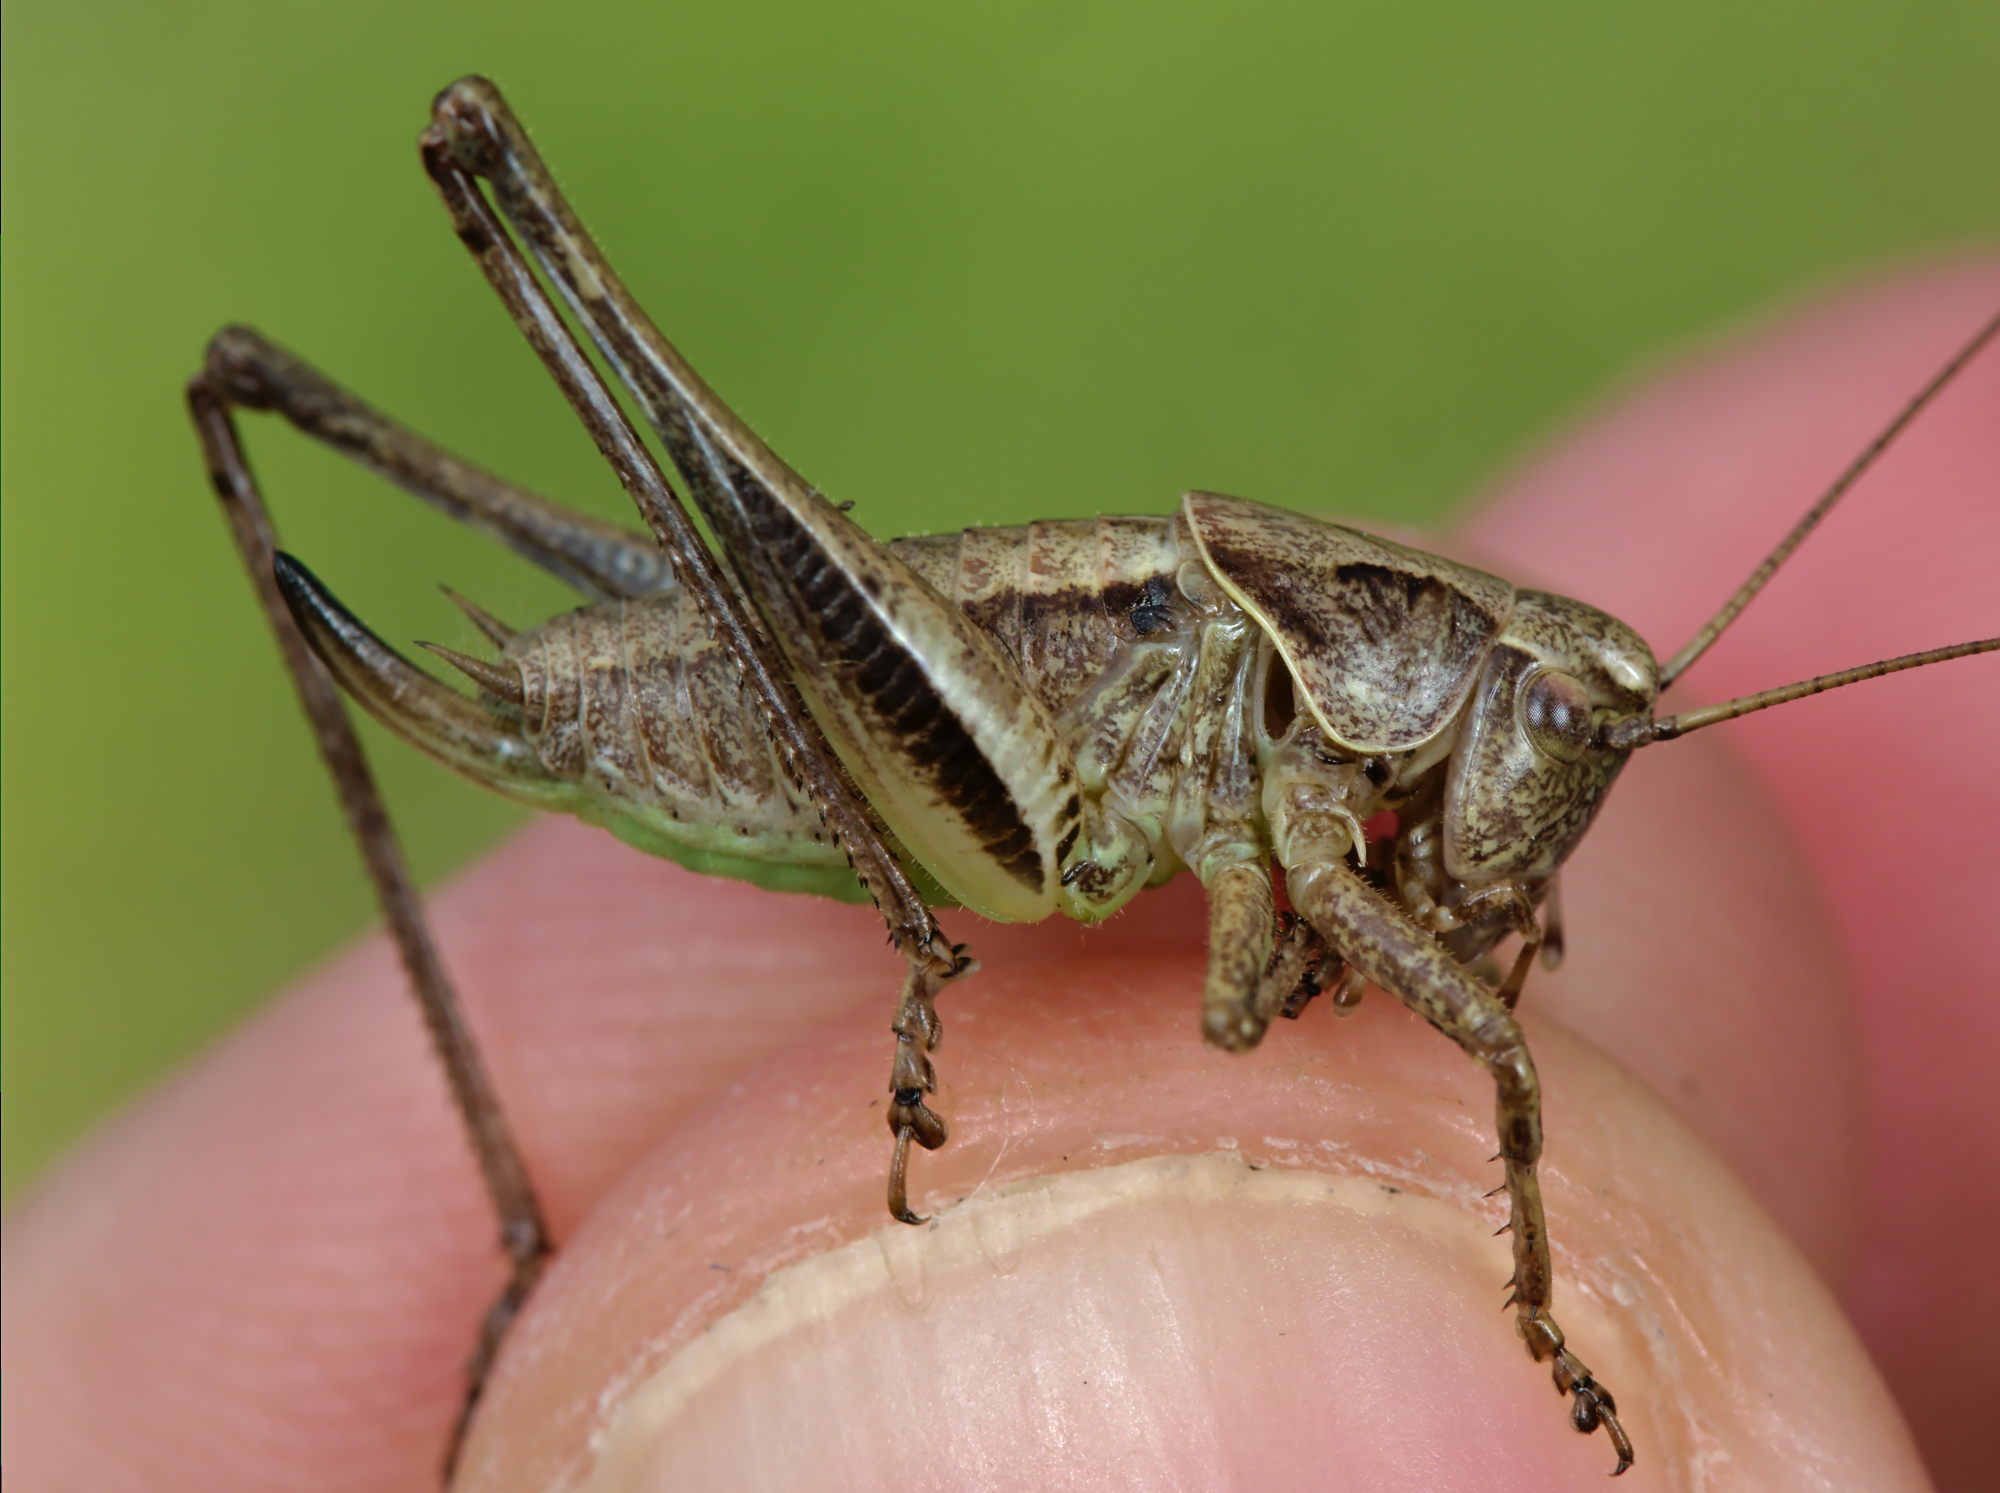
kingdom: Animalia
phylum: Arthropoda
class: Insecta
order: Orthoptera
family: Tettigoniidae
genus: Pholidoptera
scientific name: Pholidoptera griseoaptera
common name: Dark bush-cricket
